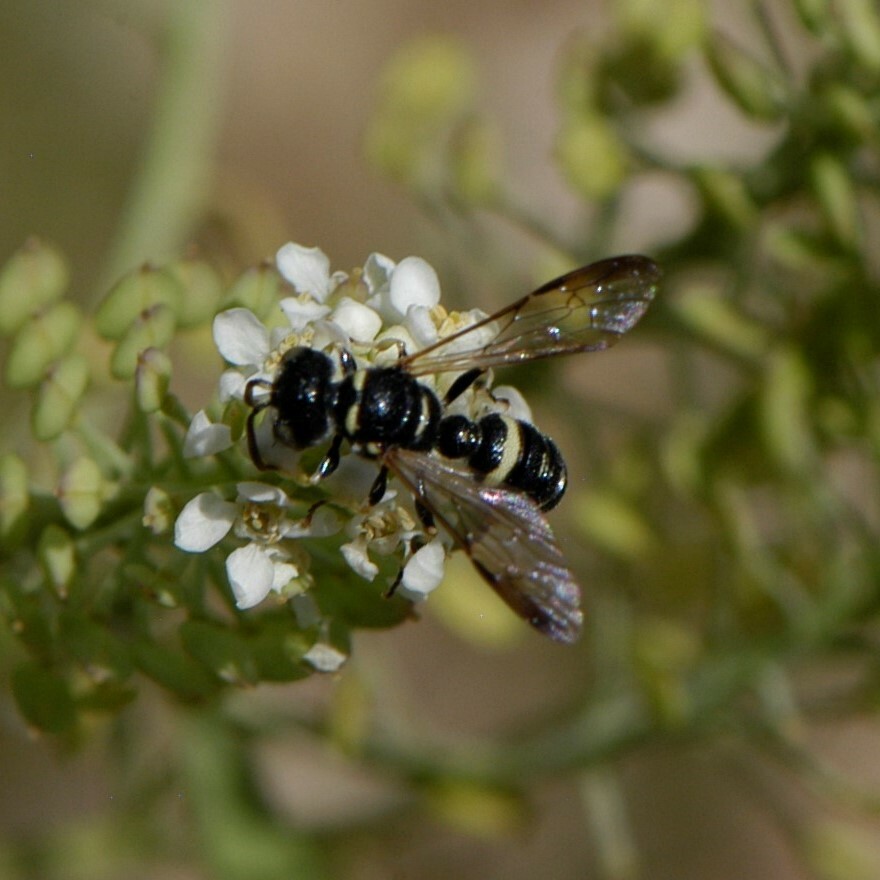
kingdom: Animalia
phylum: Arthropoda
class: Insecta
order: Hymenoptera
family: Crabronidae
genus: Cerceris
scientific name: Cerceris convergens
